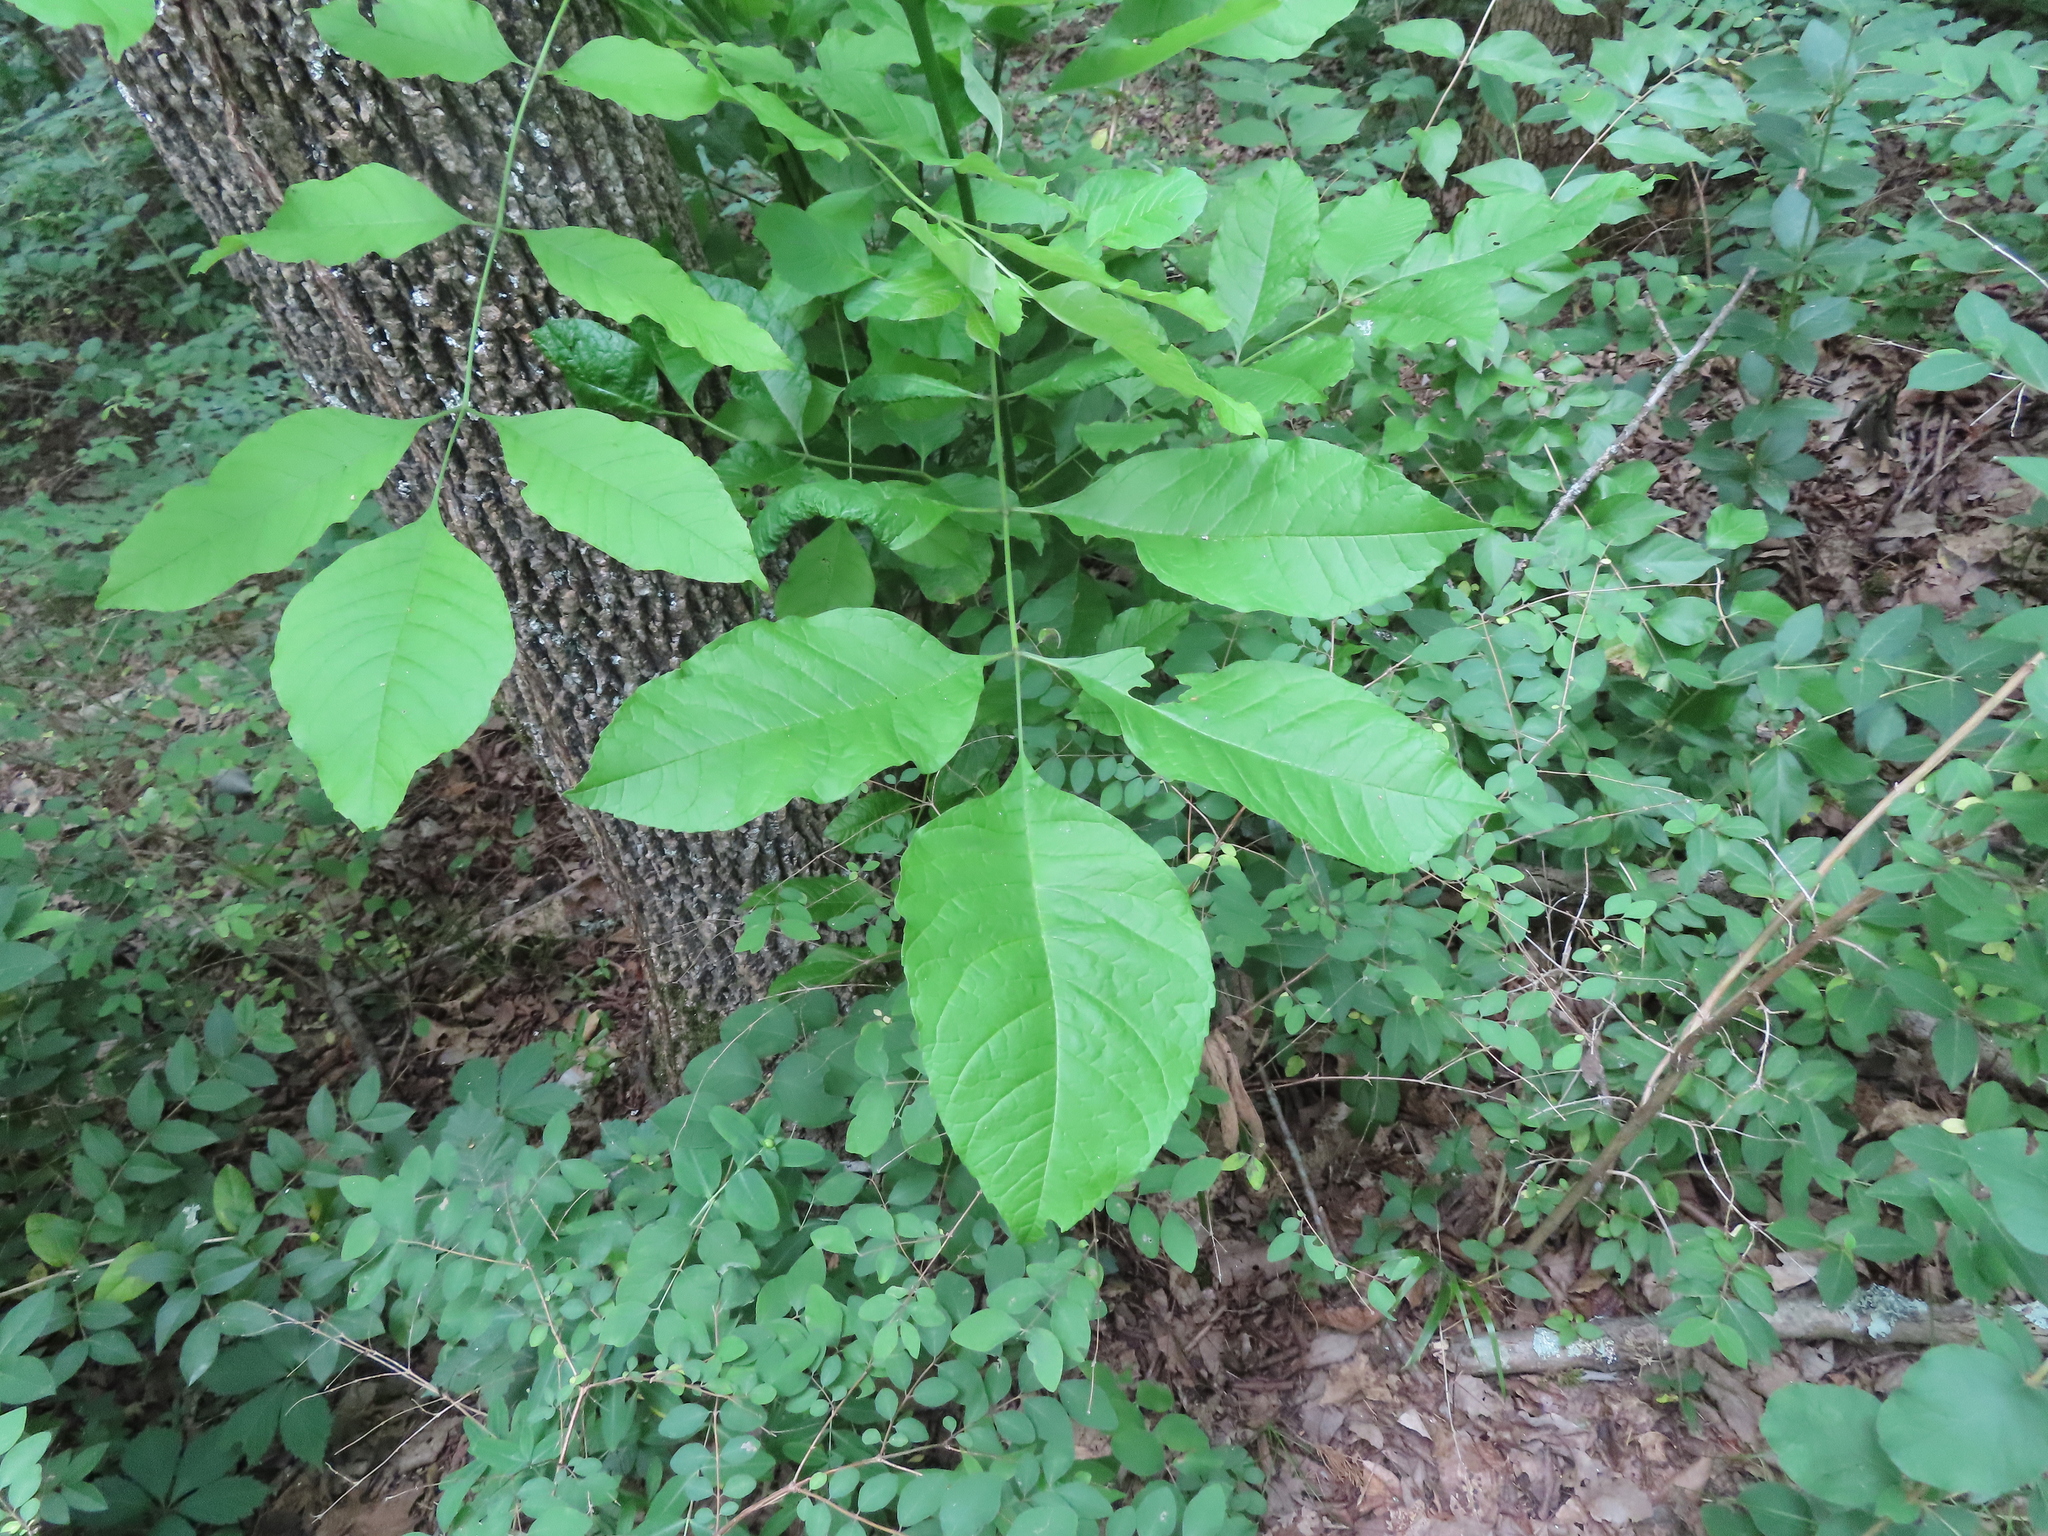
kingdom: Plantae
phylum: Tracheophyta
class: Magnoliopsida
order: Lamiales
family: Oleaceae
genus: Fraxinus
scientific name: Fraxinus pennsylvanica
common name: Green ash
